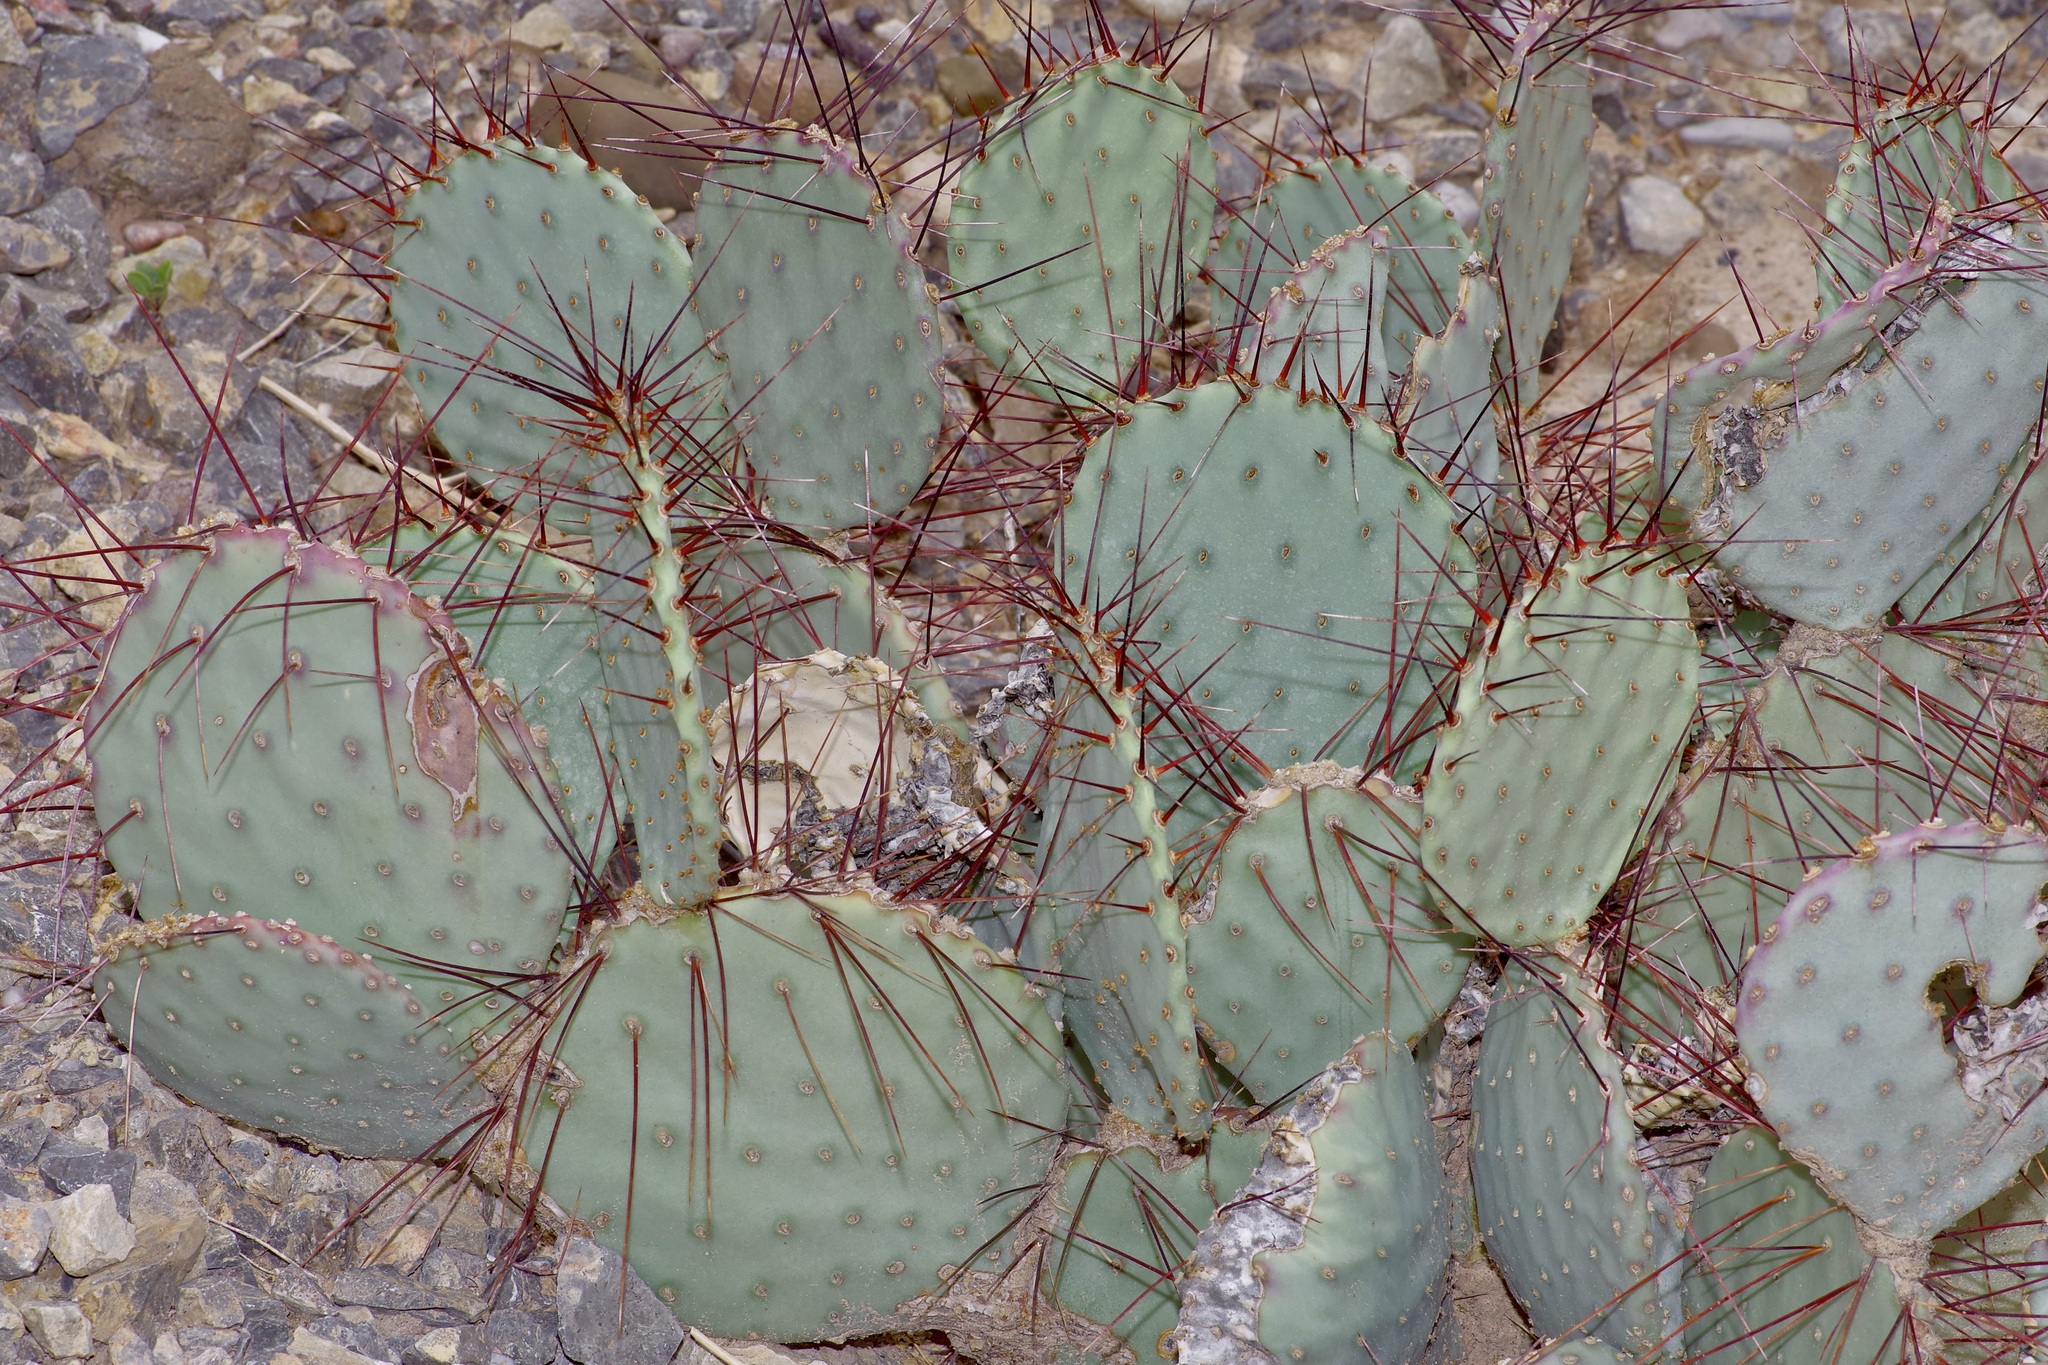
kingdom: Plantae
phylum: Tracheophyta
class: Magnoliopsida
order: Caryophyllales
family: Cactaceae
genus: Opuntia
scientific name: Opuntia macrocentra
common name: Purple prickly-pear
